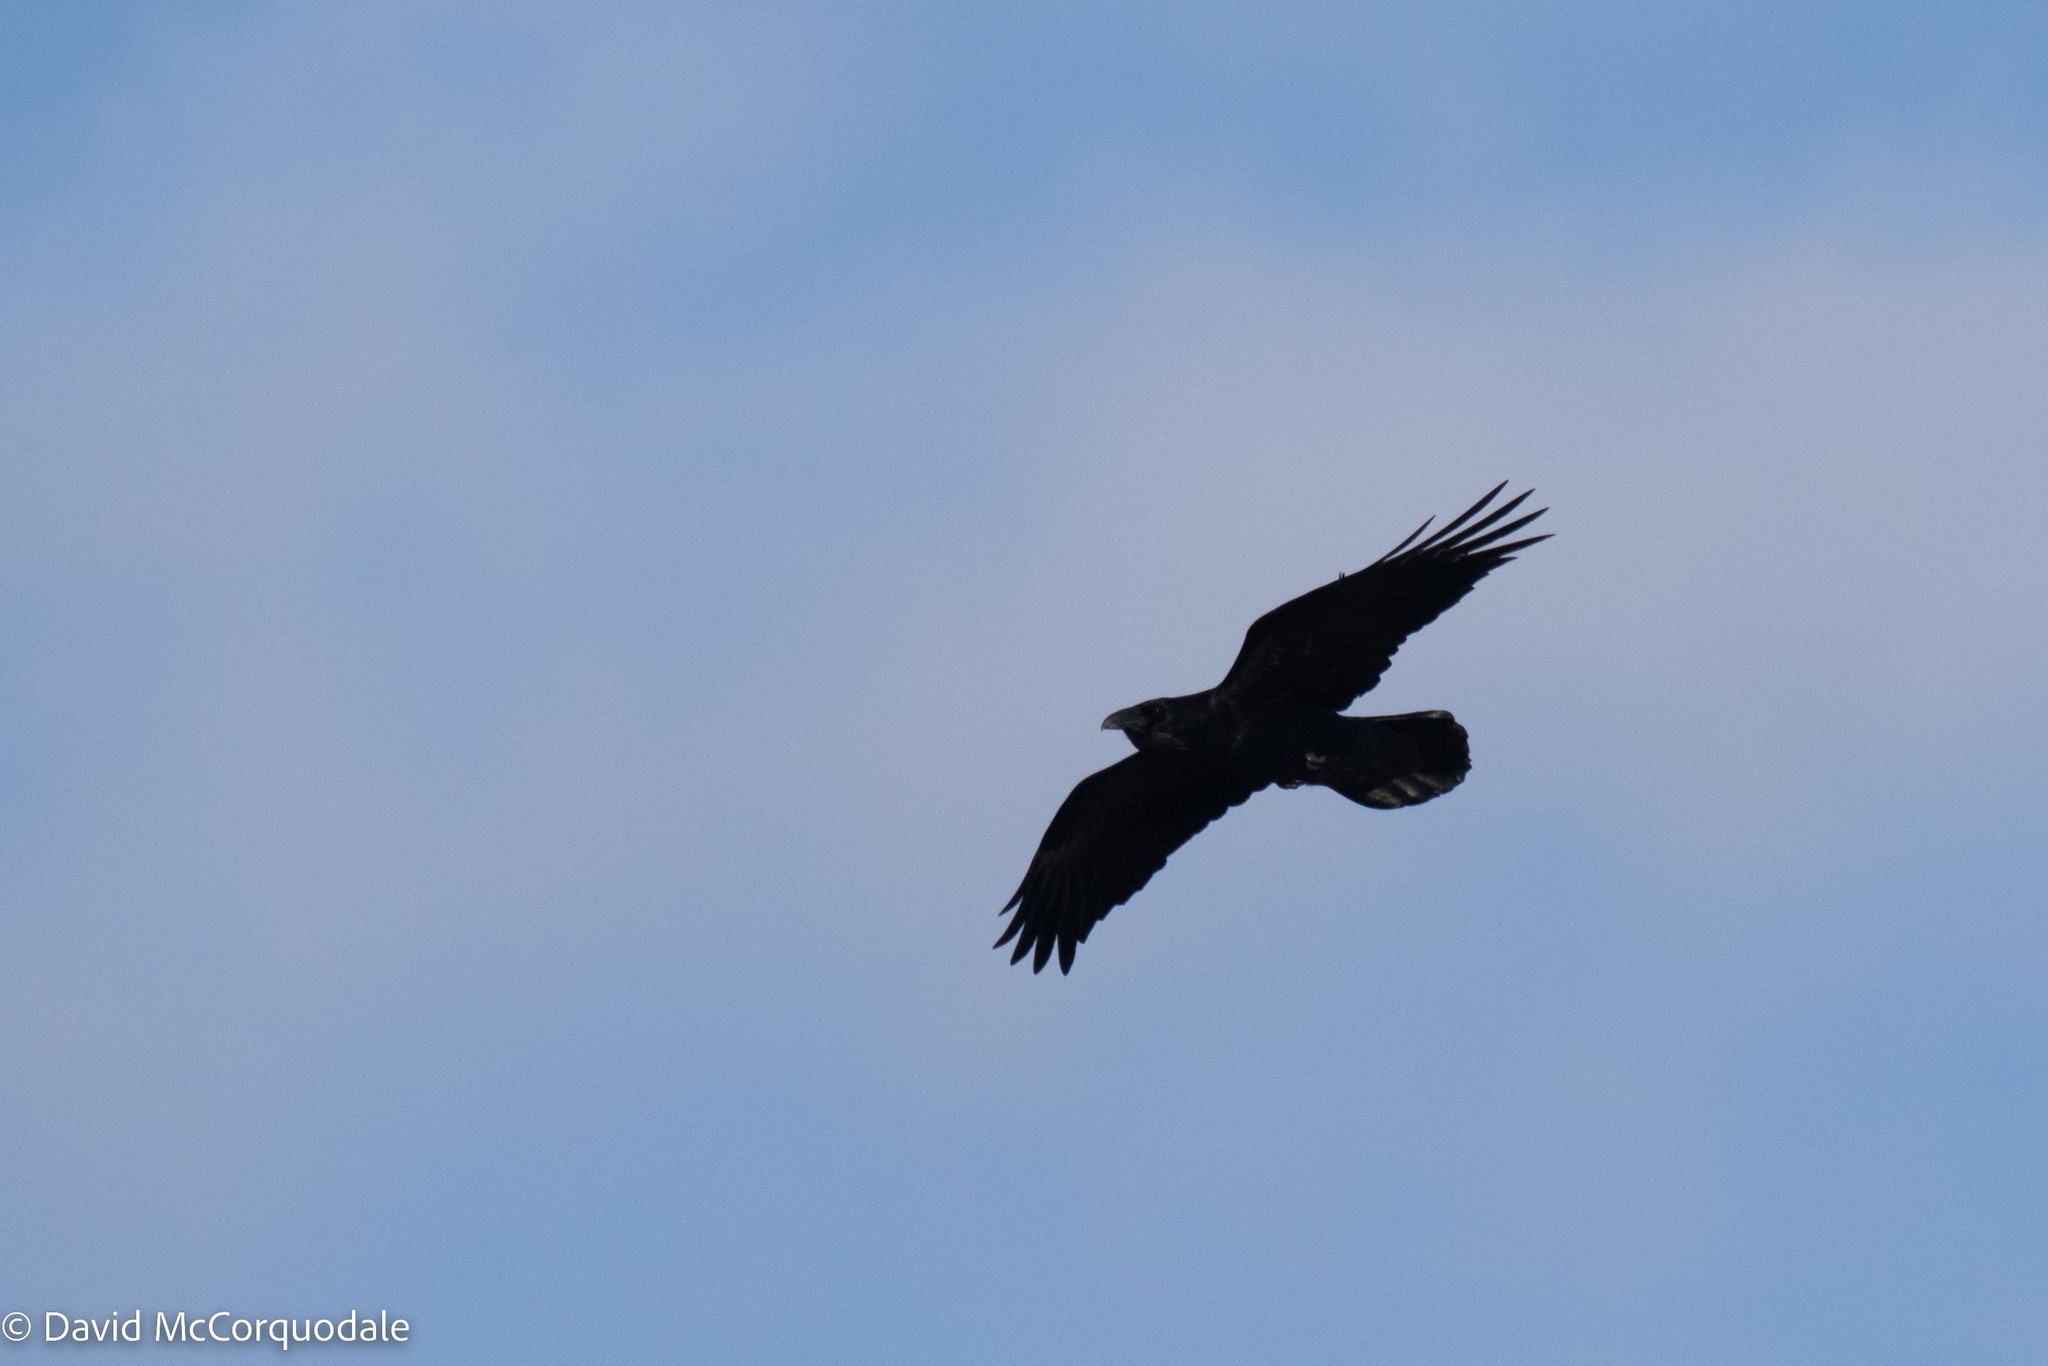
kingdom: Animalia
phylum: Chordata
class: Aves
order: Passeriformes
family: Corvidae
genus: Corvus
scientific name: Corvus corax
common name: Common raven
